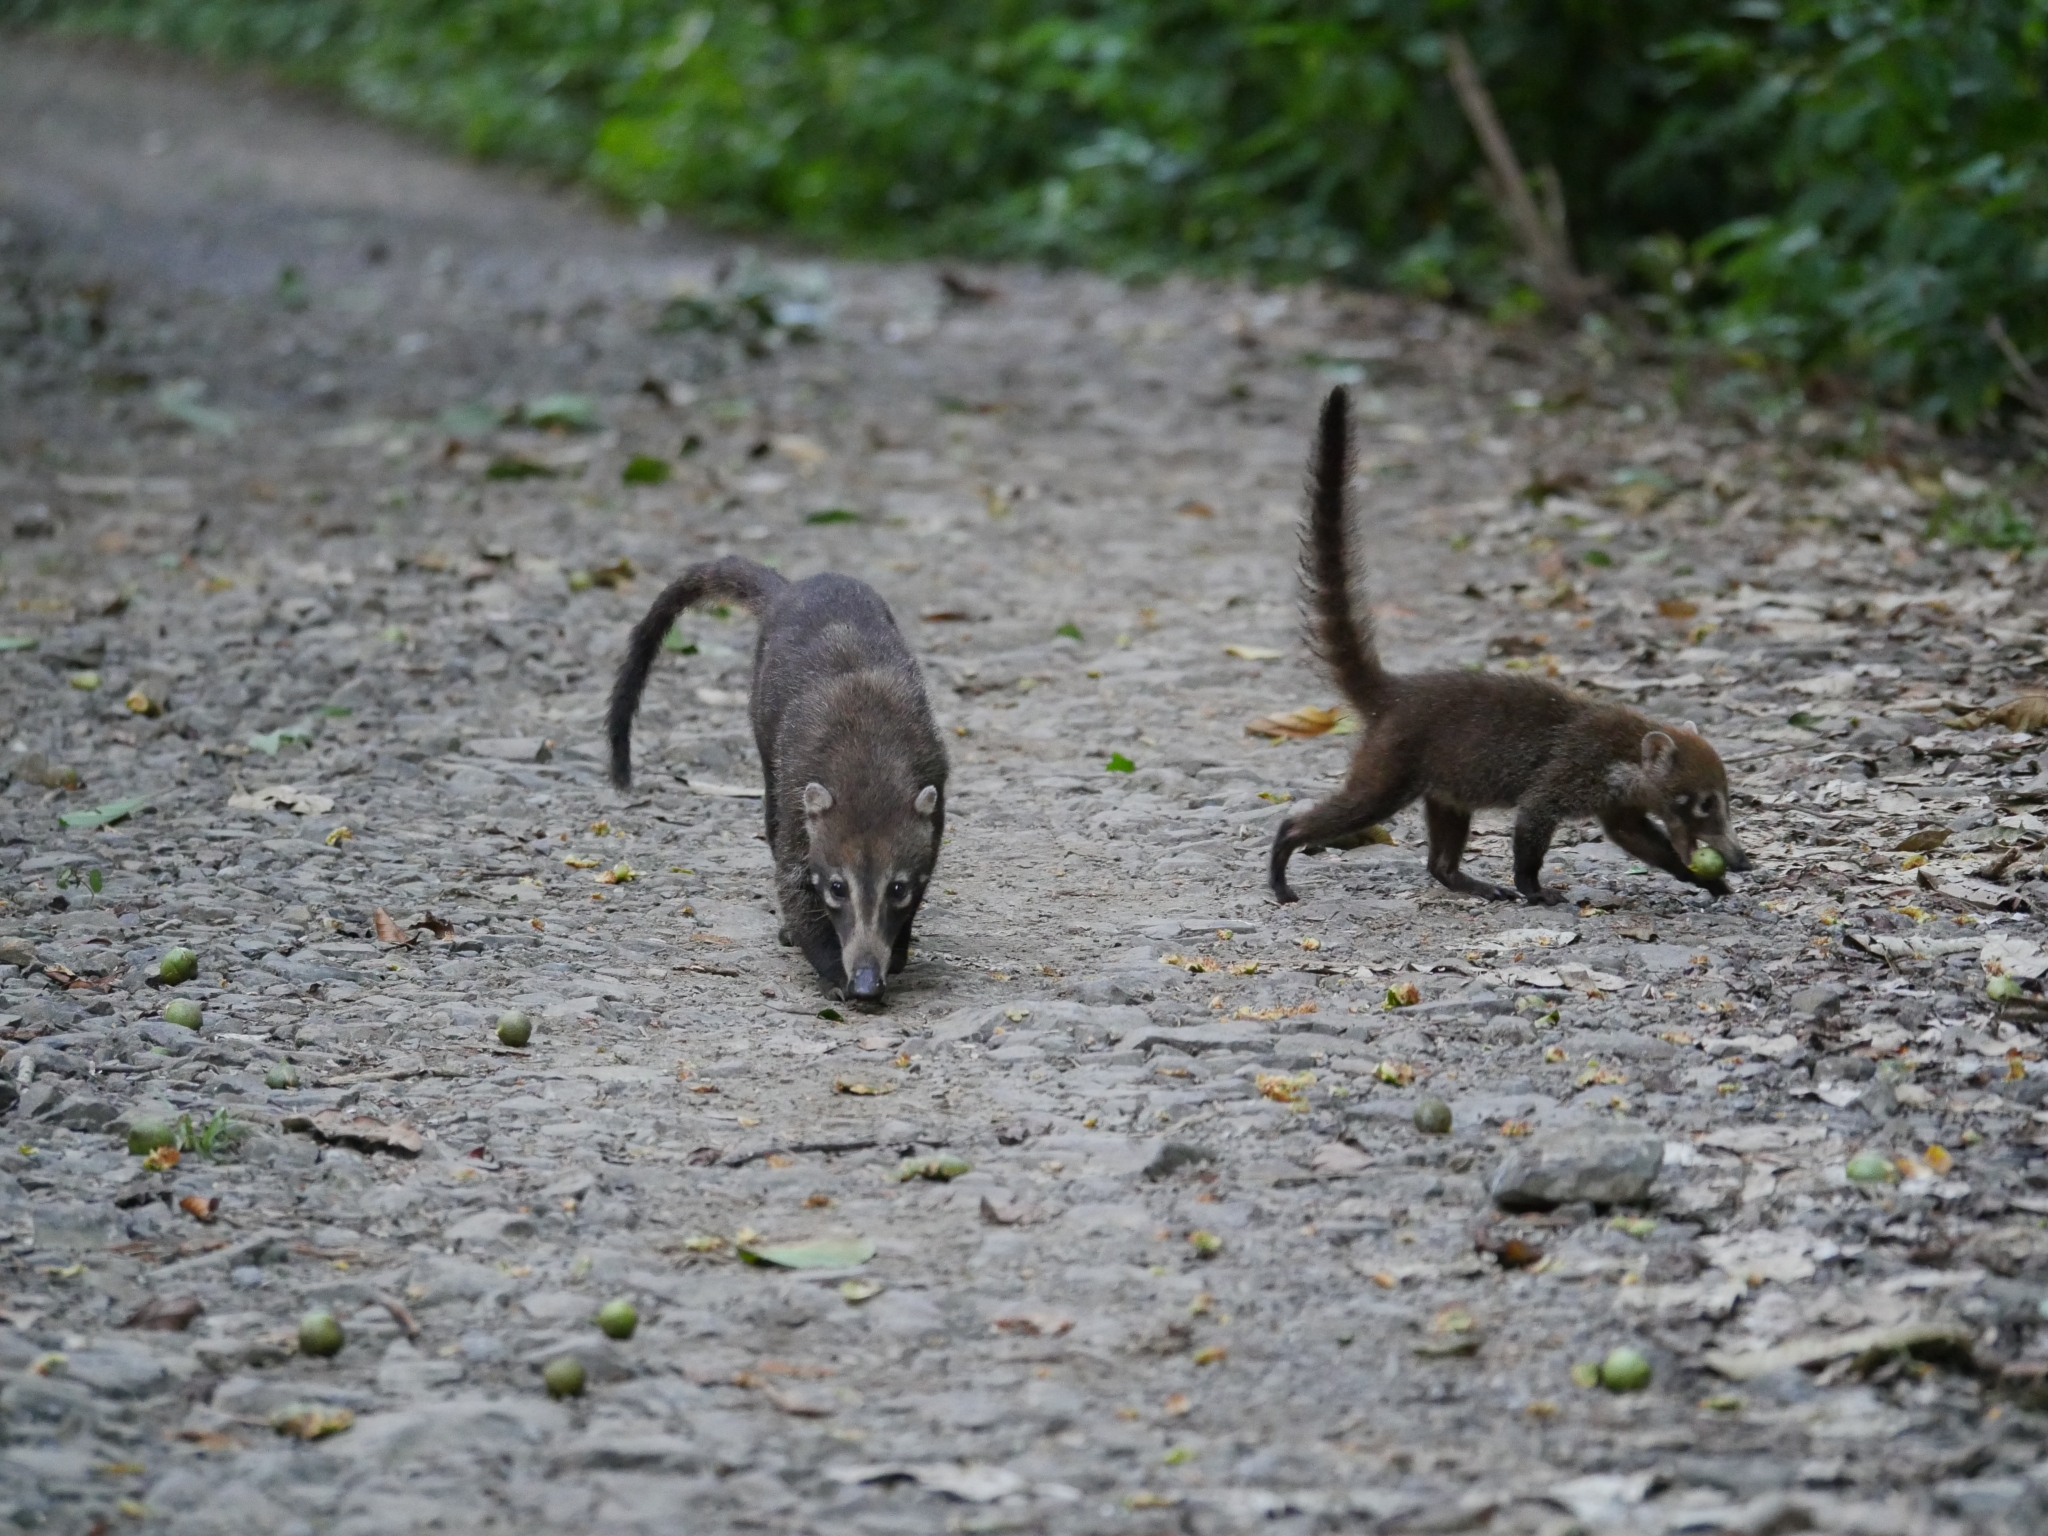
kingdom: Animalia
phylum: Chordata
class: Mammalia
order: Carnivora
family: Procyonidae
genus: Nasua
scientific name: Nasua narica
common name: White-nosed coati
